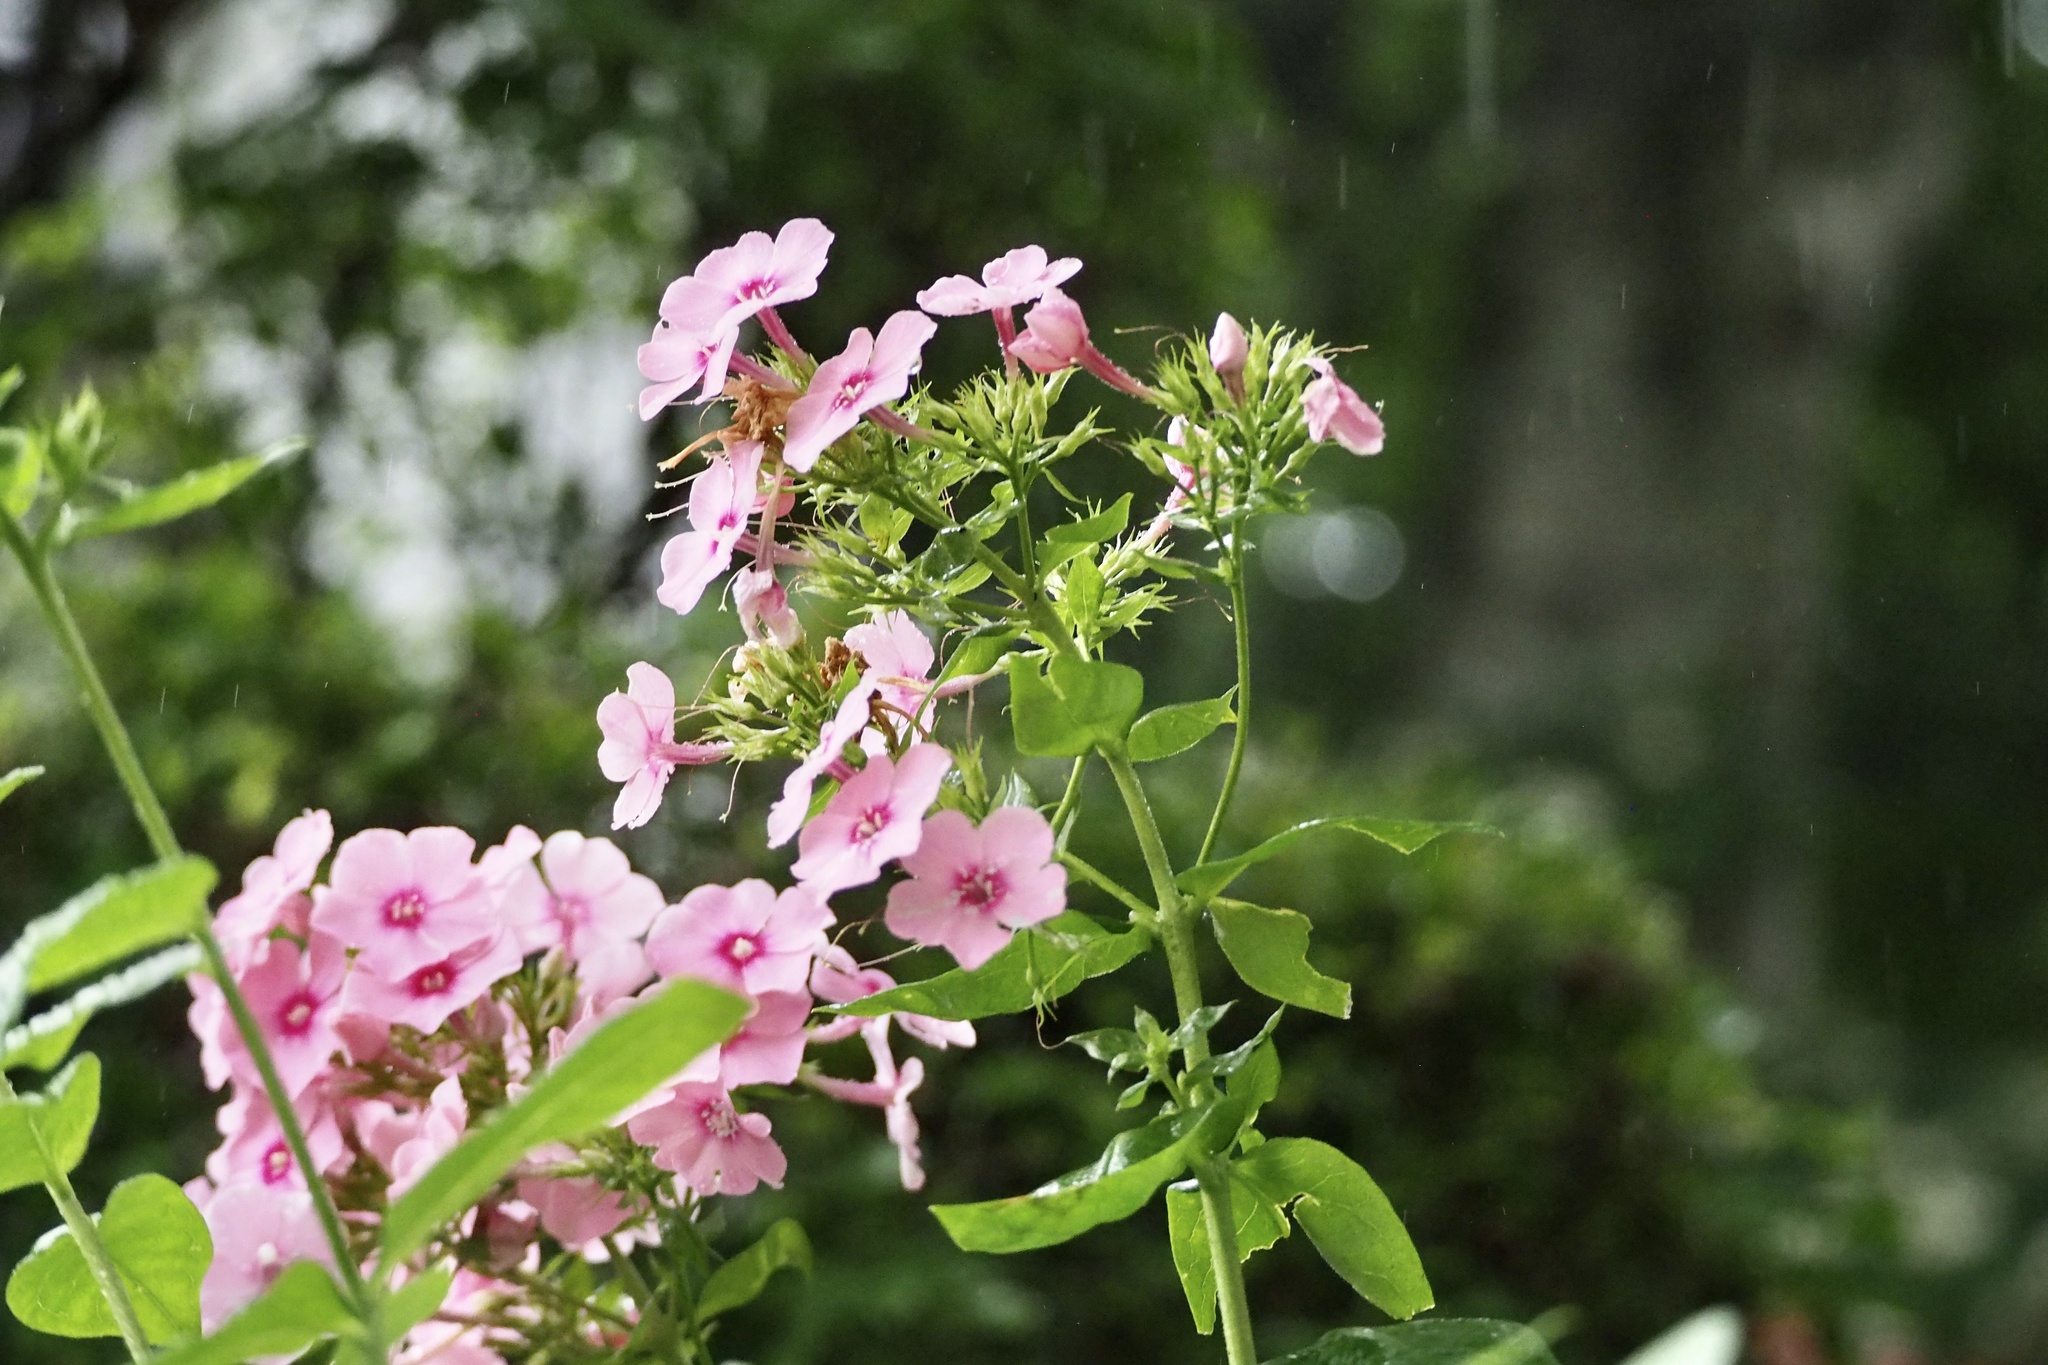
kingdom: Plantae
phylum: Tracheophyta
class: Magnoliopsida
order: Ericales
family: Polemoniaceae
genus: Phlox
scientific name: Phlox paniculata
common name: Fall phlox
